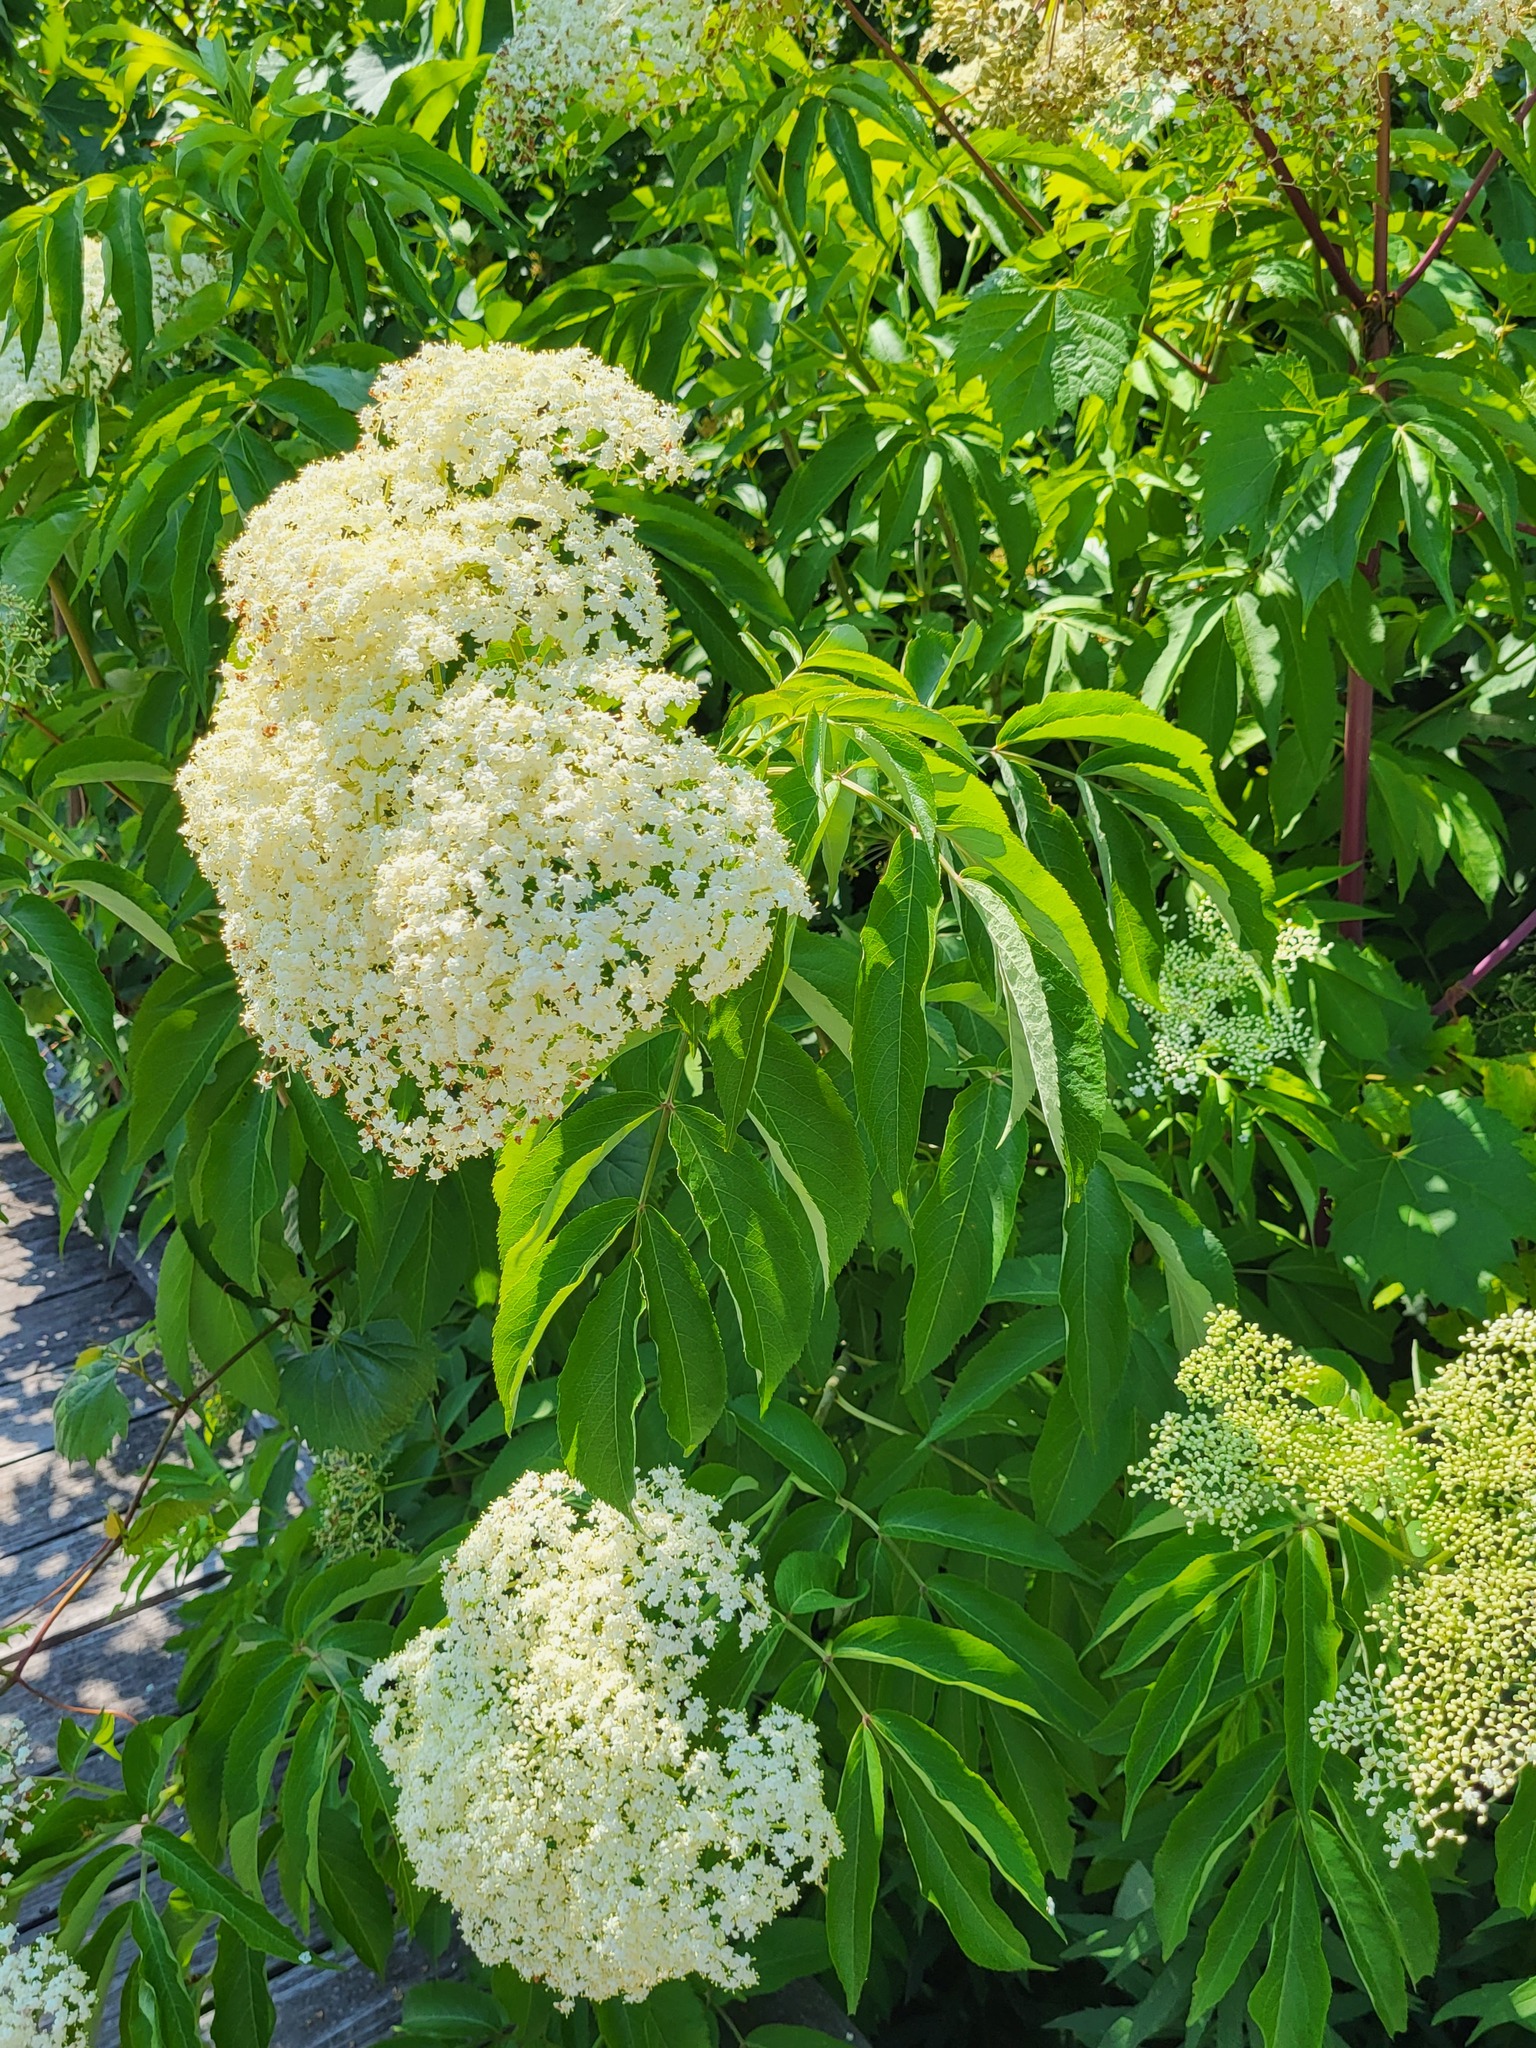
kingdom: Plantae
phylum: Tracheophyta
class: Magnoliopsida
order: Dipsacales
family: Viburnaceae
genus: Sambucus
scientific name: Sambucus canadensis
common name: American elder
